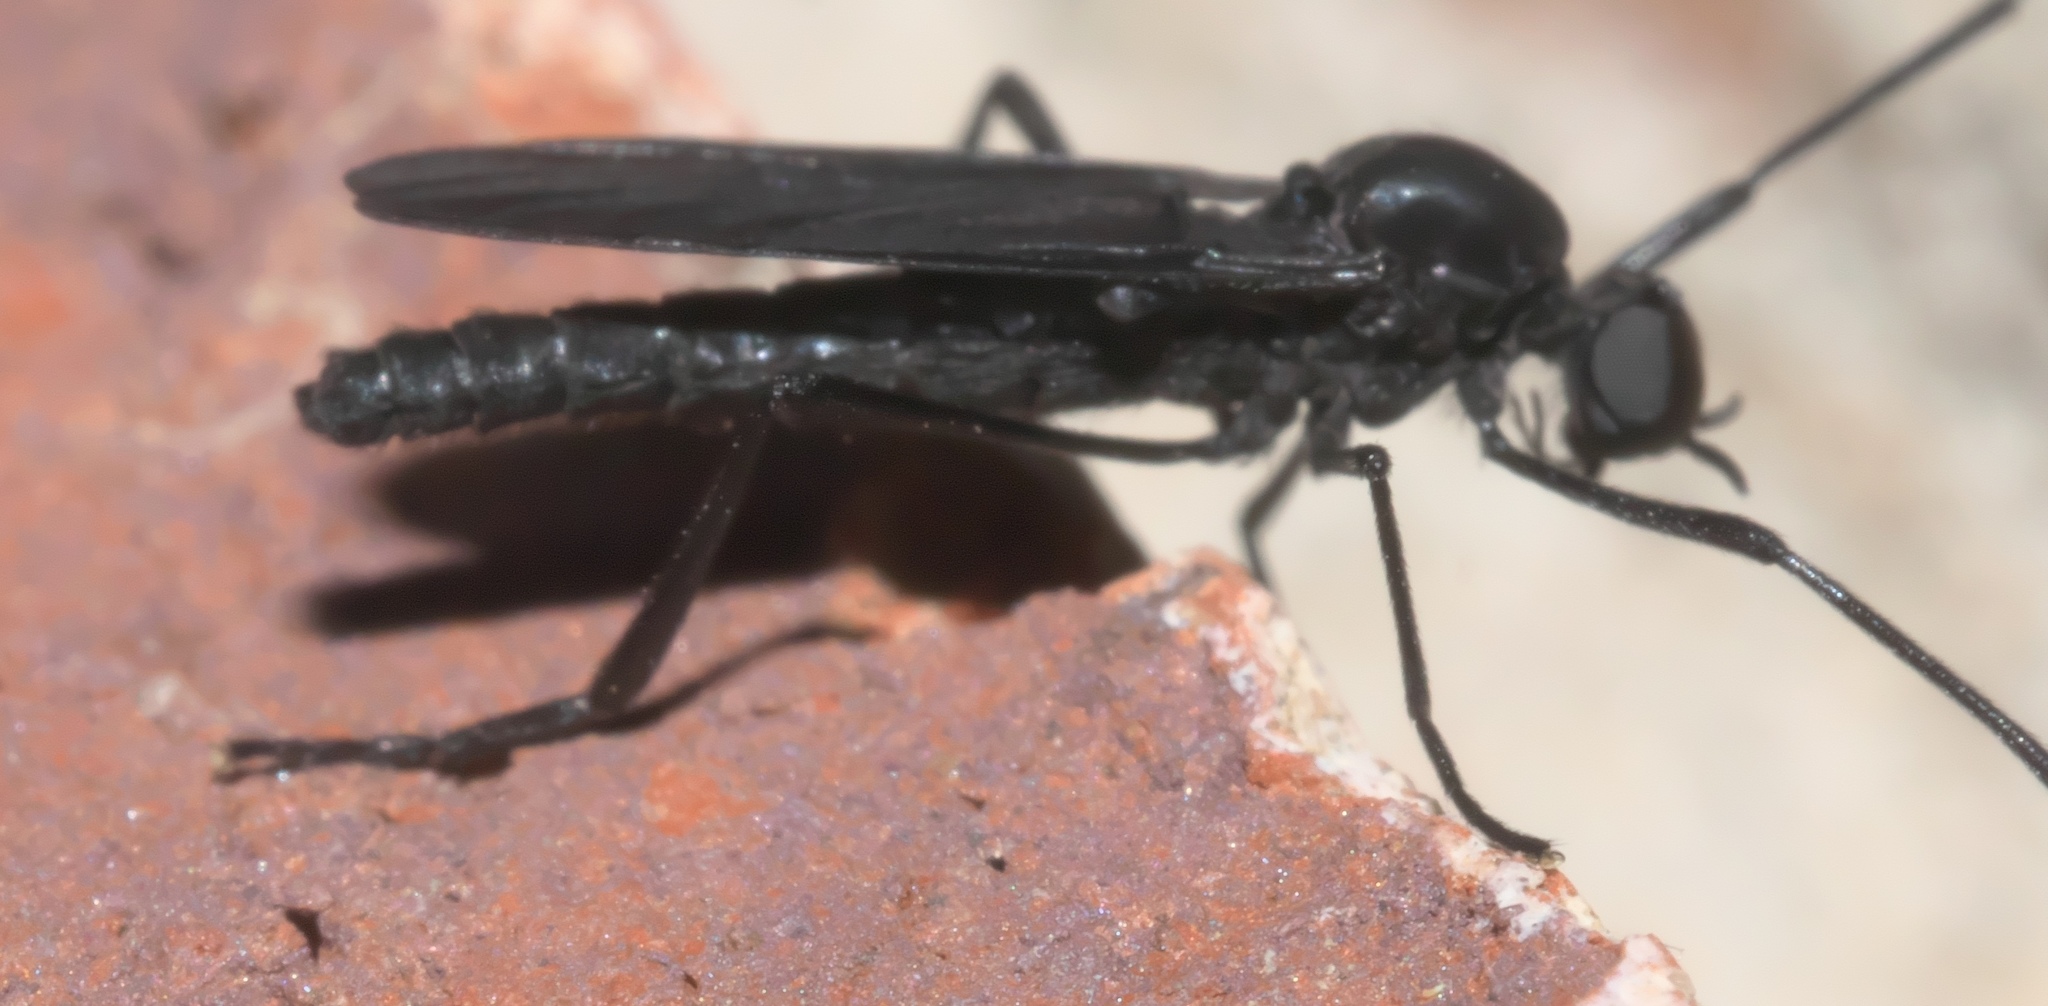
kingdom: Animalia
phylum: Arthropoda
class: Insecta
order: Diptera
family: Bibionidae
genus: Penthetria
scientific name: Penthetria heteroptera
